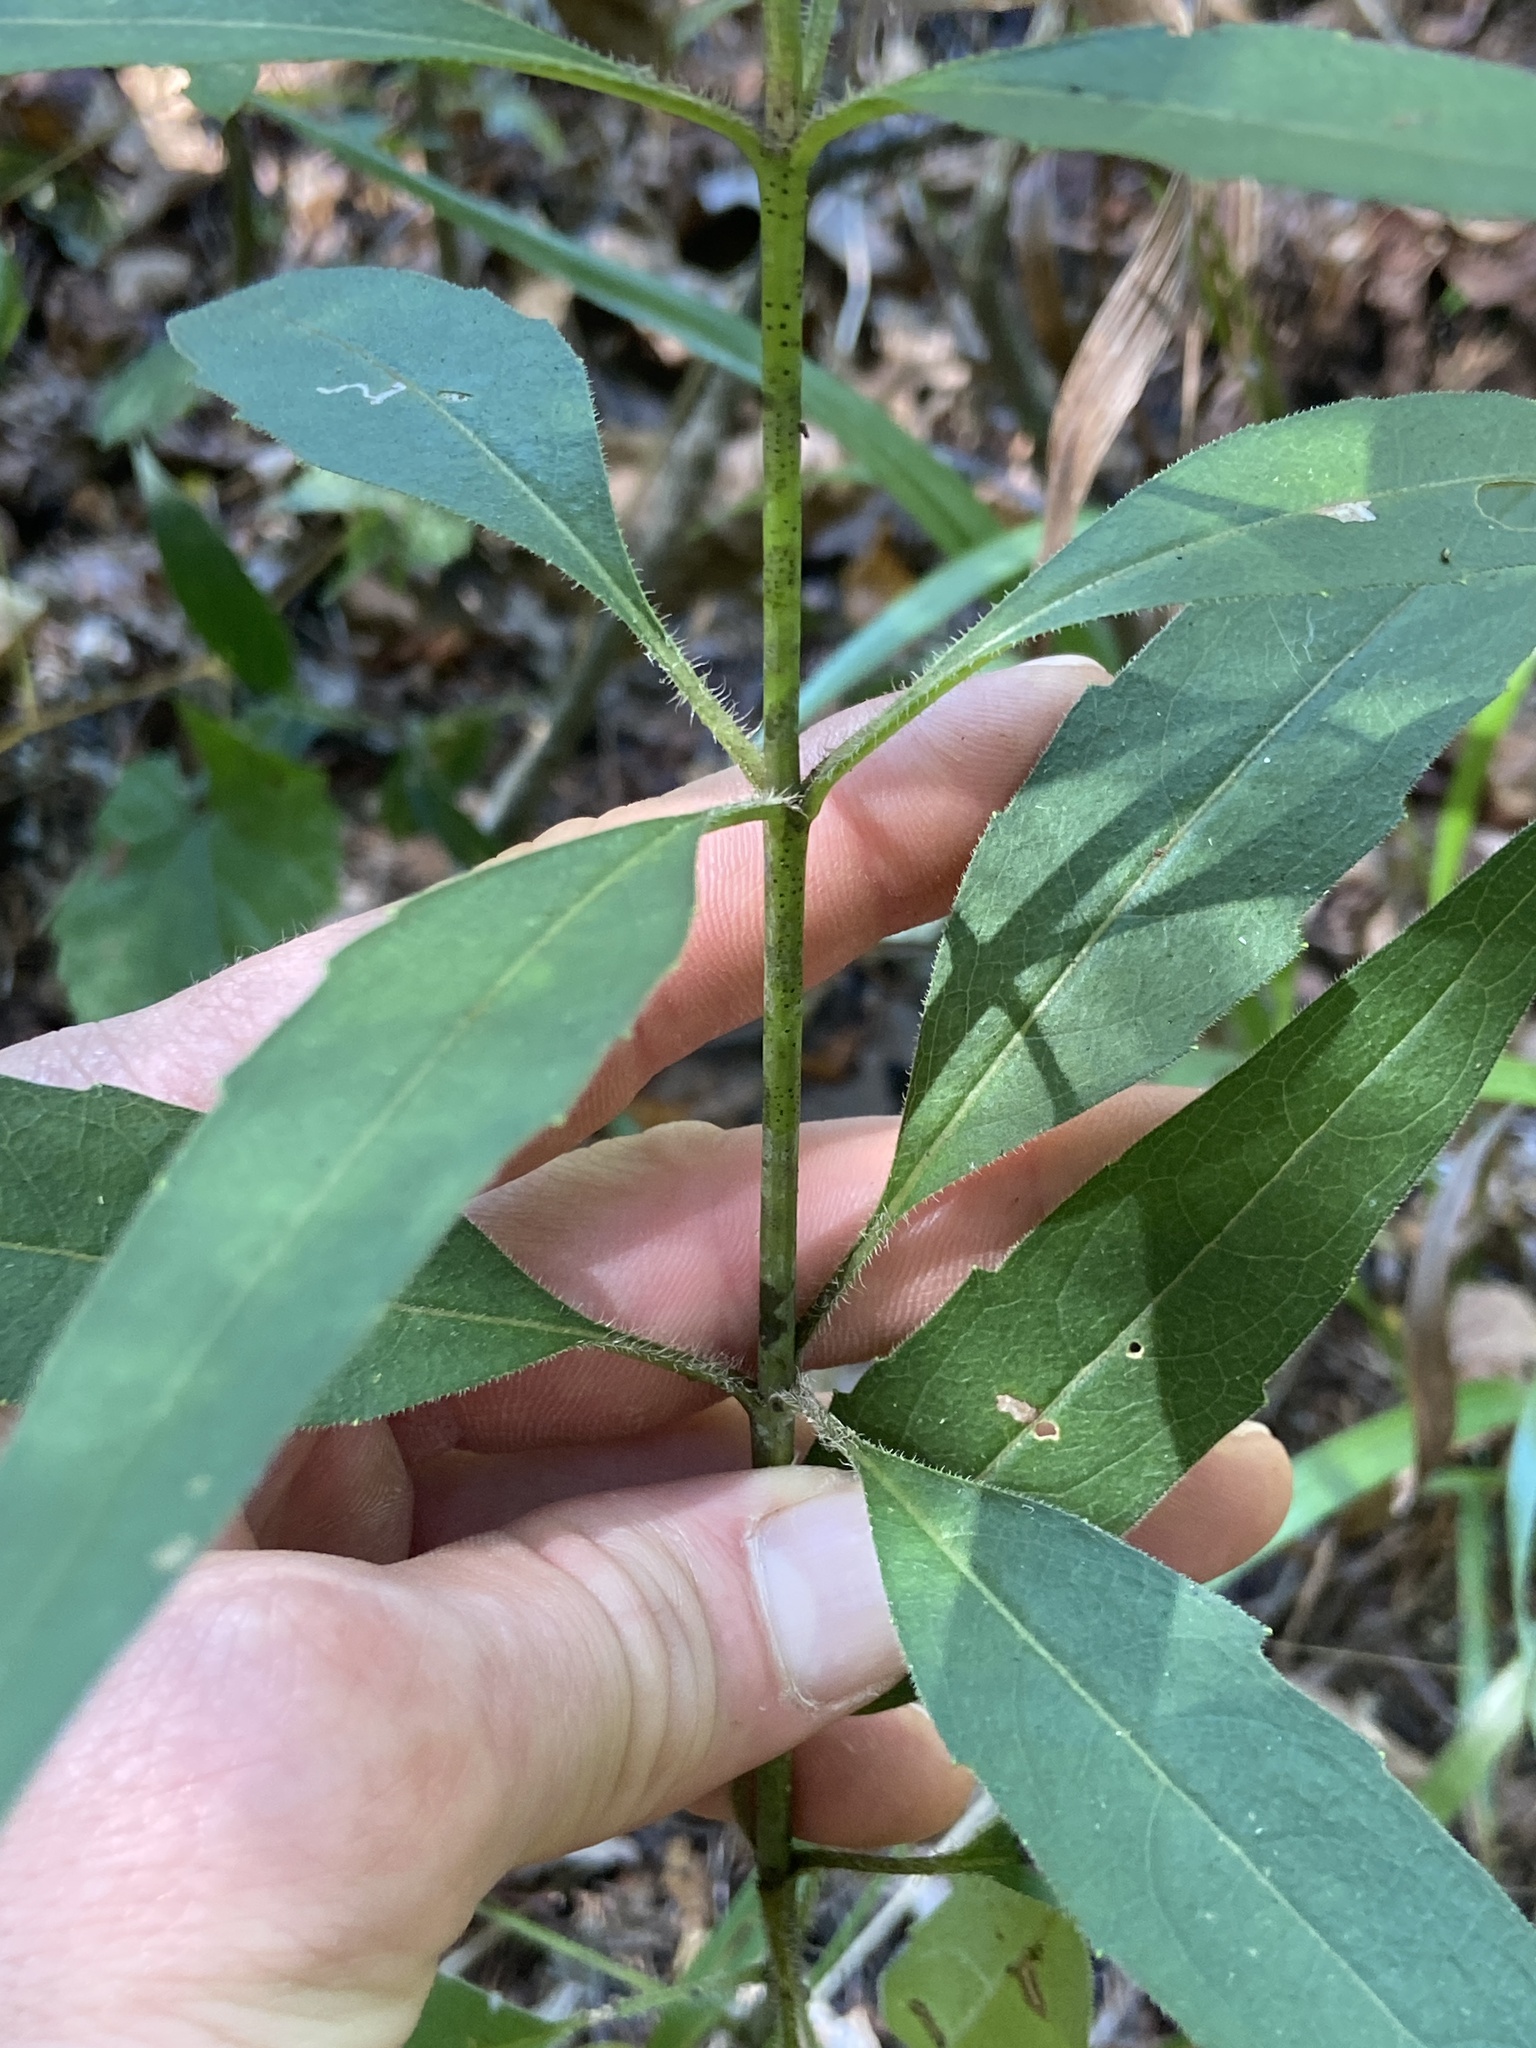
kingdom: Plantae
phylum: Tracheophyta
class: Magnoliopsida
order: Asterales
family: Asteraceae
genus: Silphium
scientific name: Silphium asteriscus
